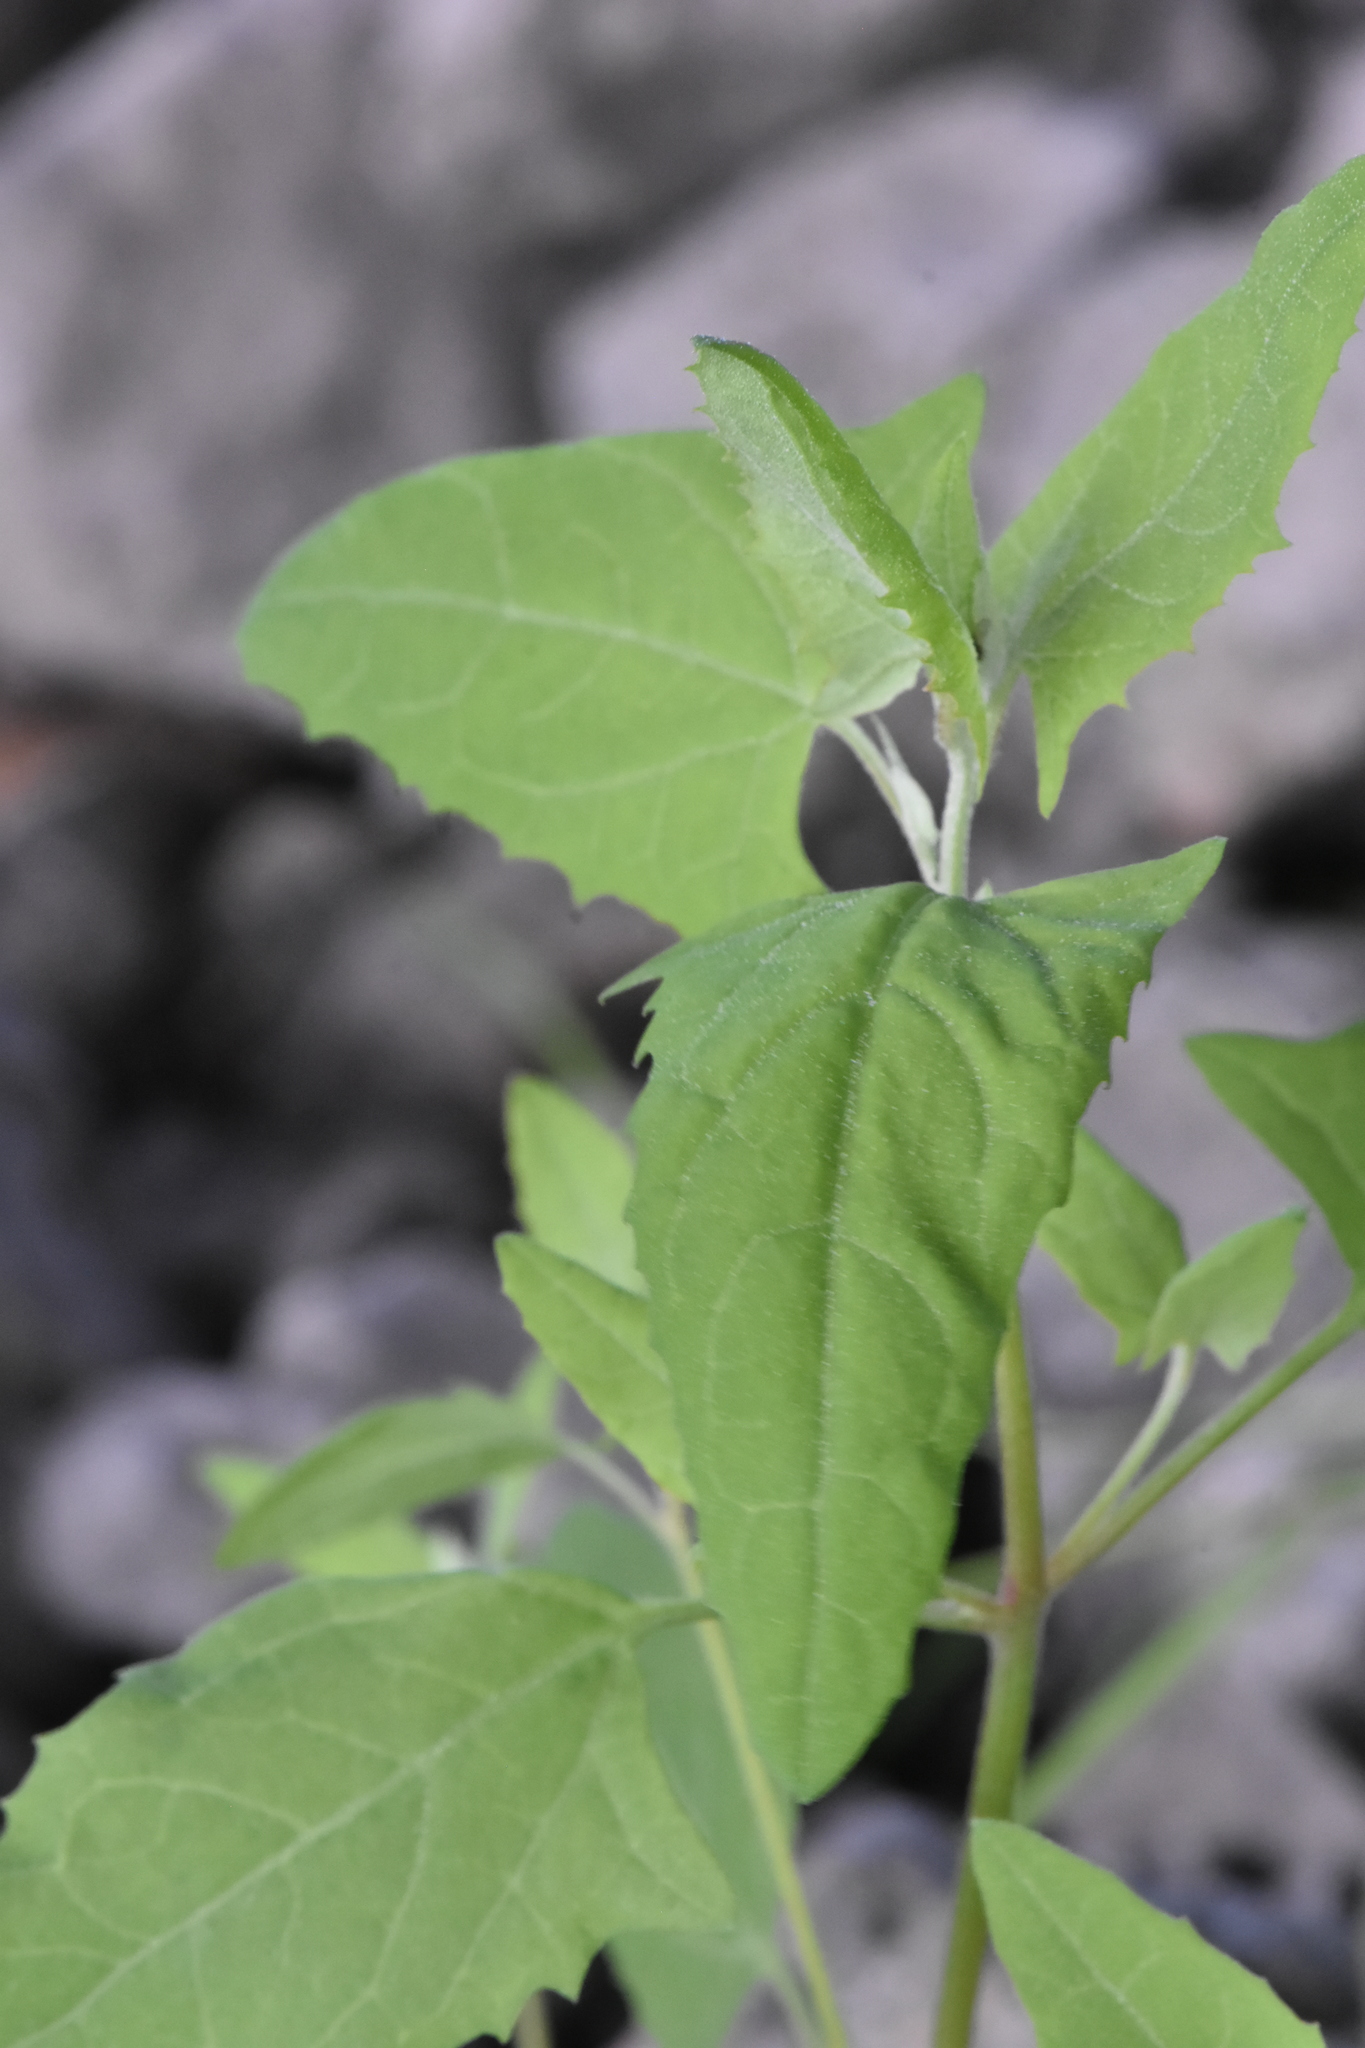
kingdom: Plantae
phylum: Tracheophyta
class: Magnoliopsida
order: Caryophyllales
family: Amaranthaceae
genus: Atriplex
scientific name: Atriplex sagittata
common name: Purple orache
